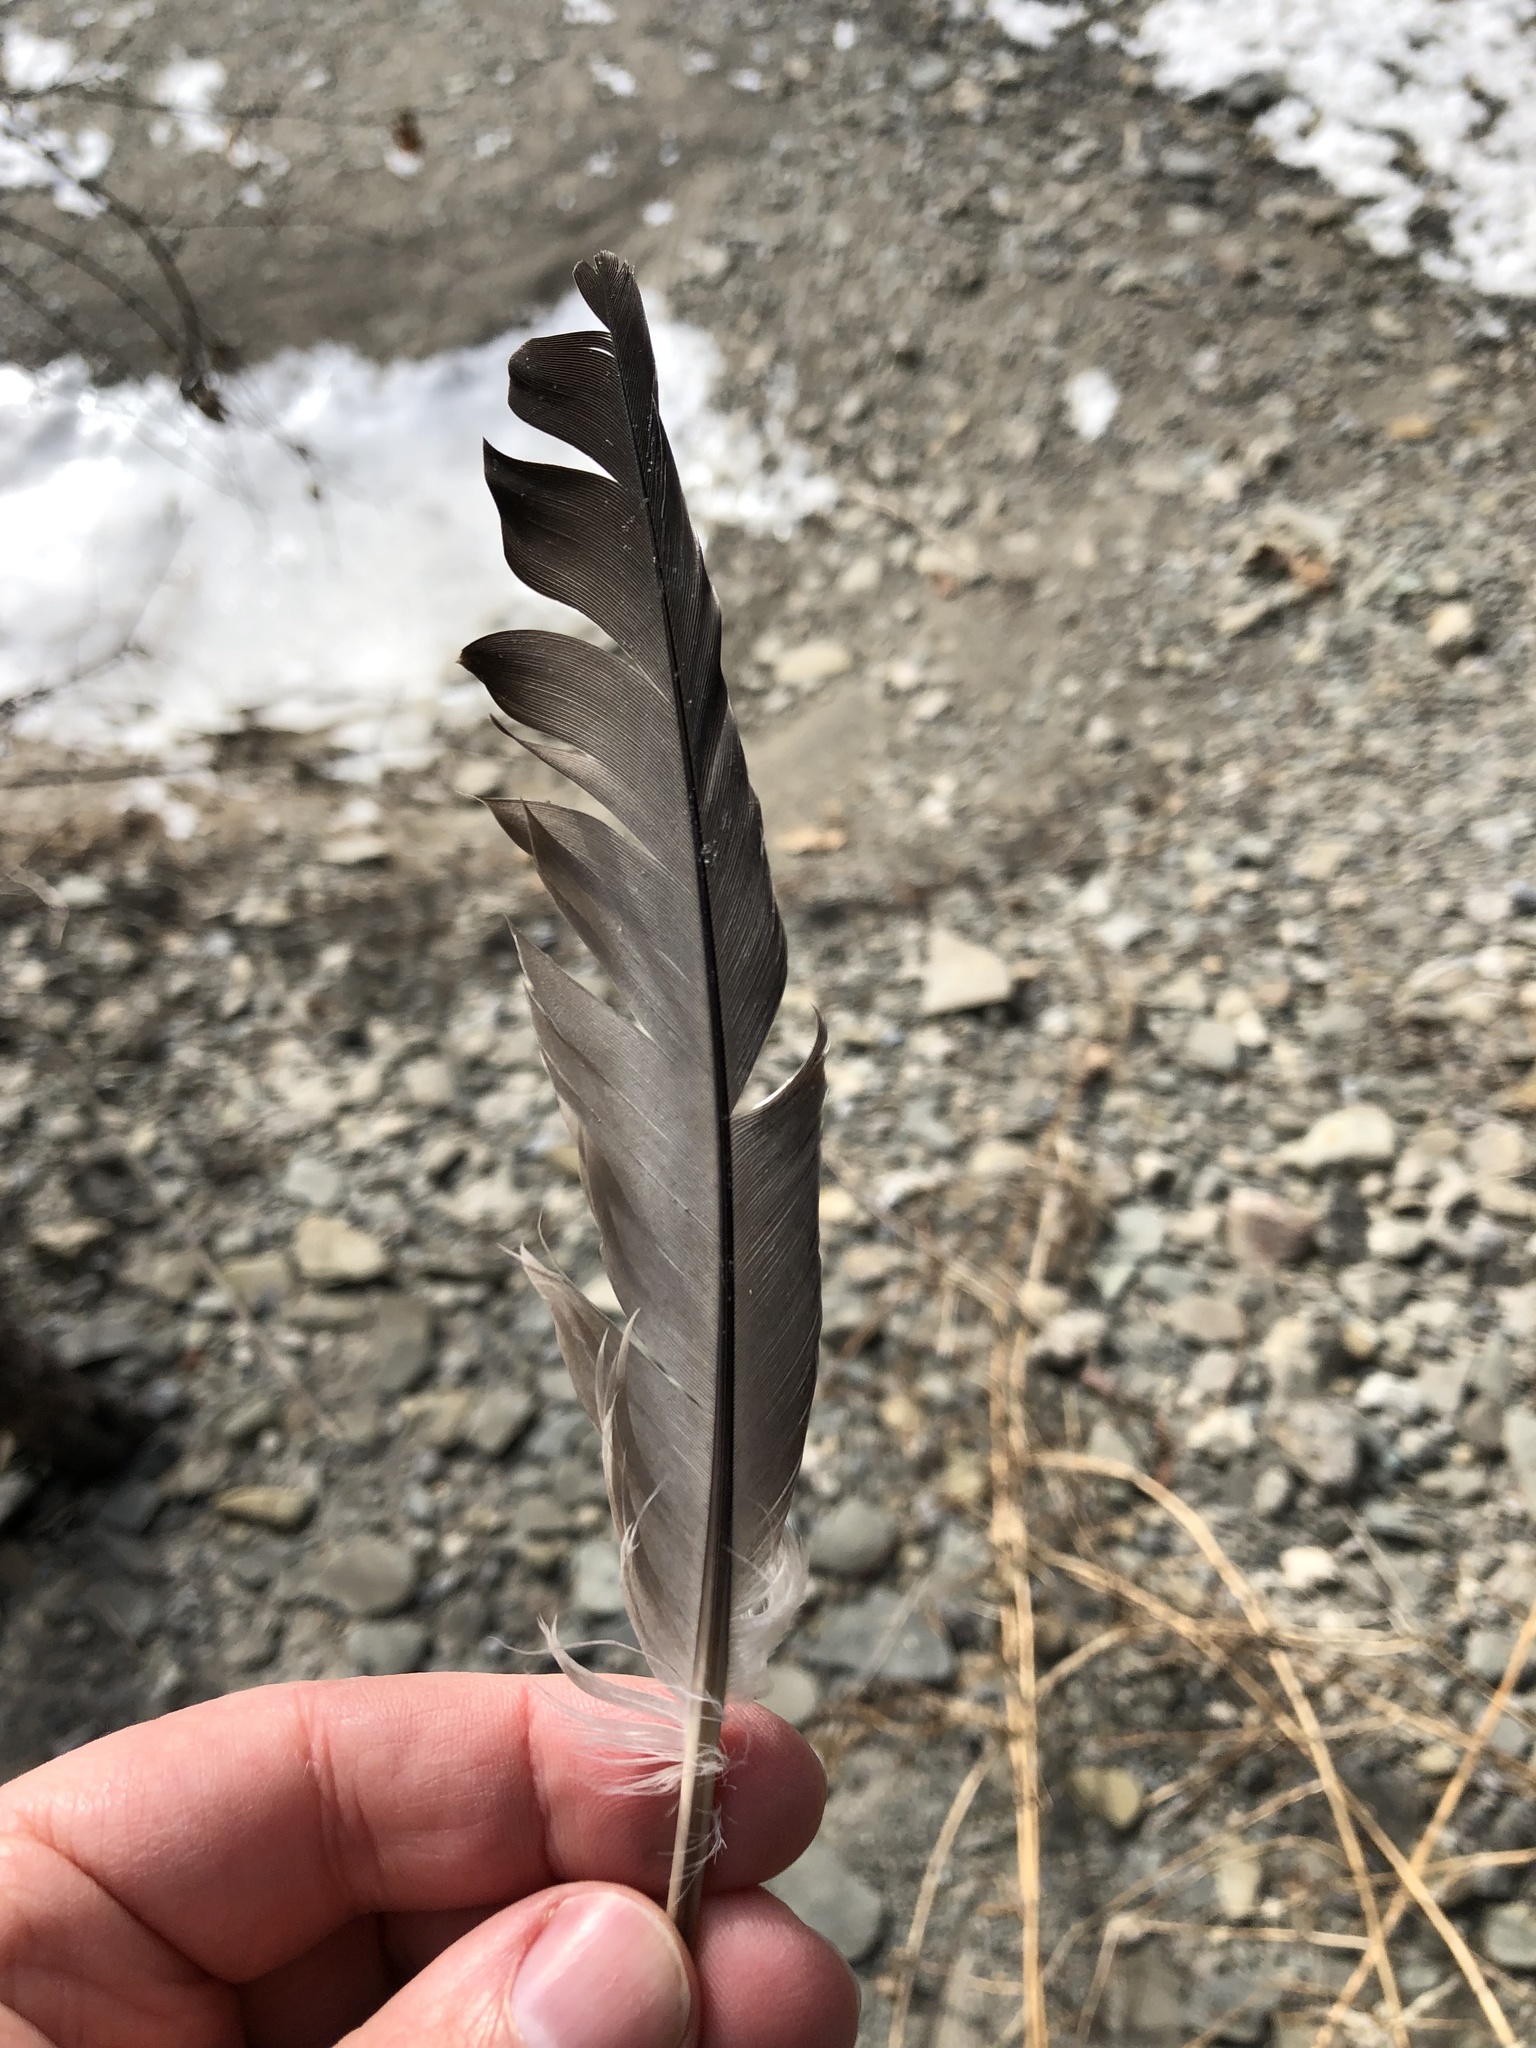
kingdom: Animalia
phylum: Chordata
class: Aves
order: Columbiformes
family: Columbidae
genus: Columba
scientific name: Columba livia
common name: Rock pigeon
